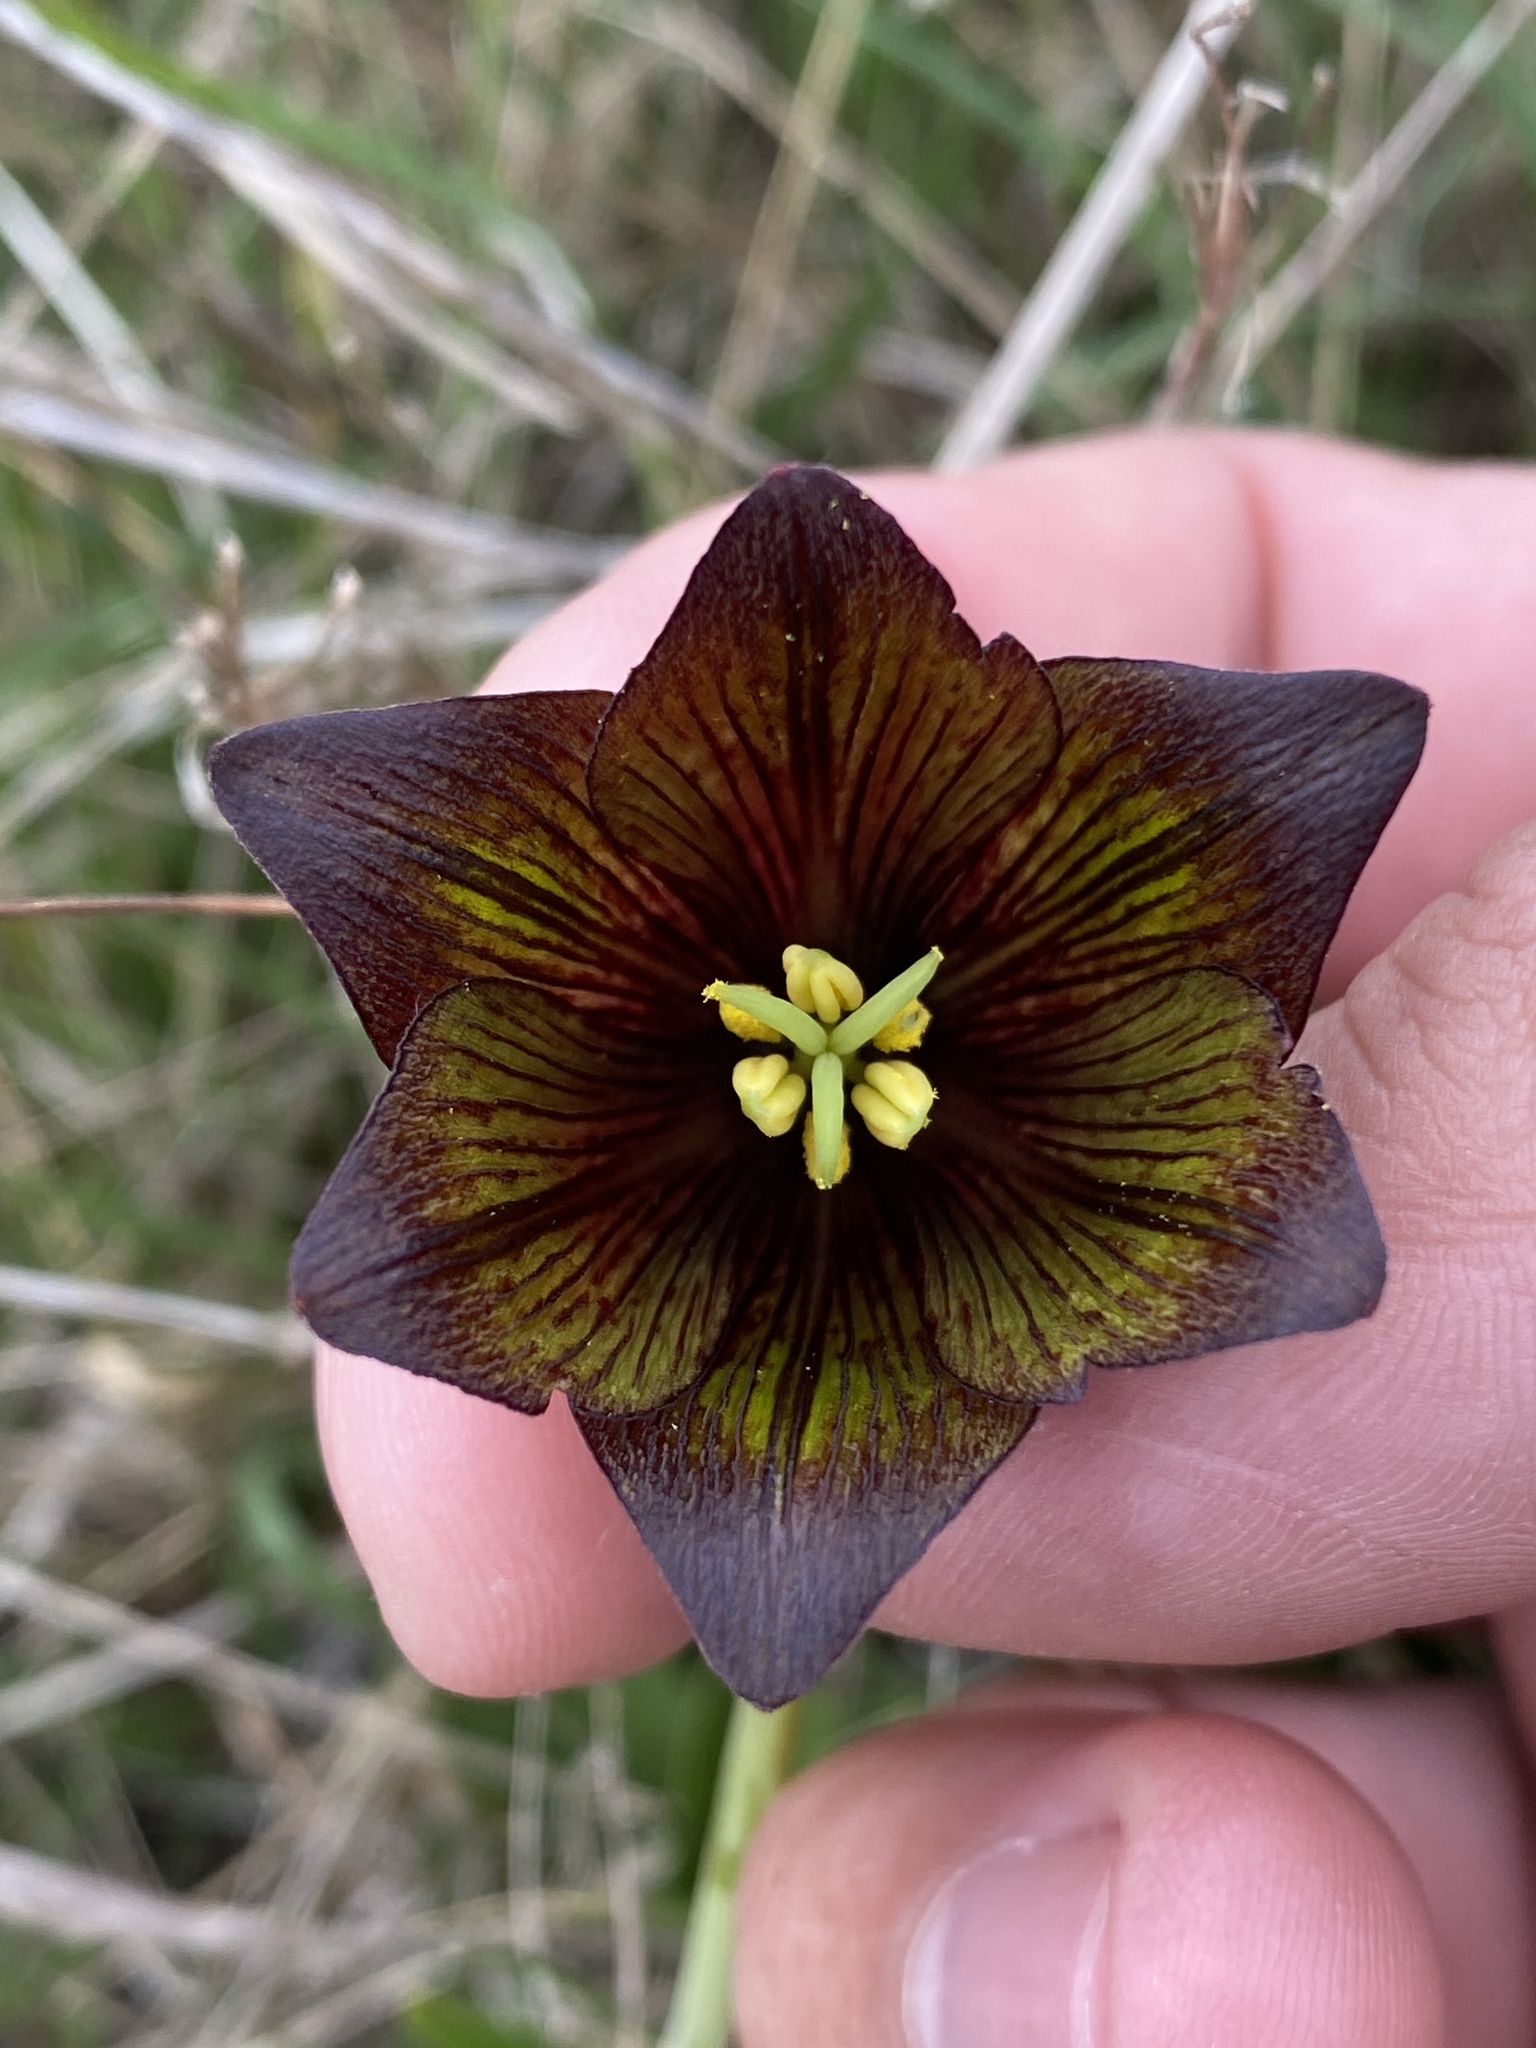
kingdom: Plantae
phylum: Tracheophyta
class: Liliopsida
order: Liliales
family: Liliaceae
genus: Fritillaria
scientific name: Fritillaria biflora
